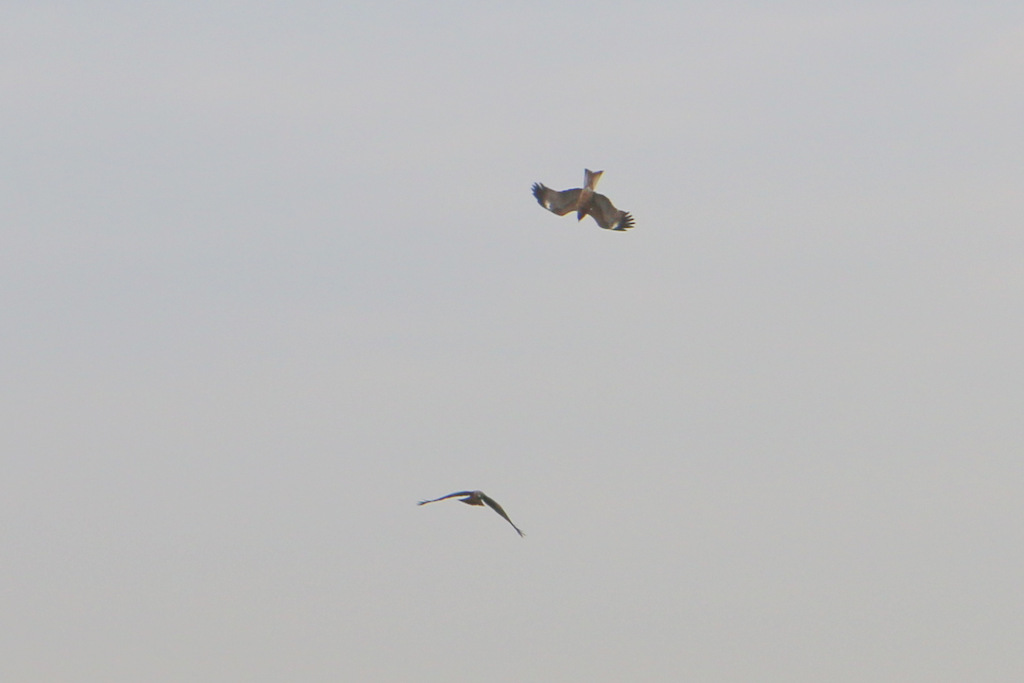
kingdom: Animalia
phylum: Chordata
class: Aves
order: Accipitriformes
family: Accipitridae
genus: Milvus
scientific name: Milvus migrans
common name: Black kite
